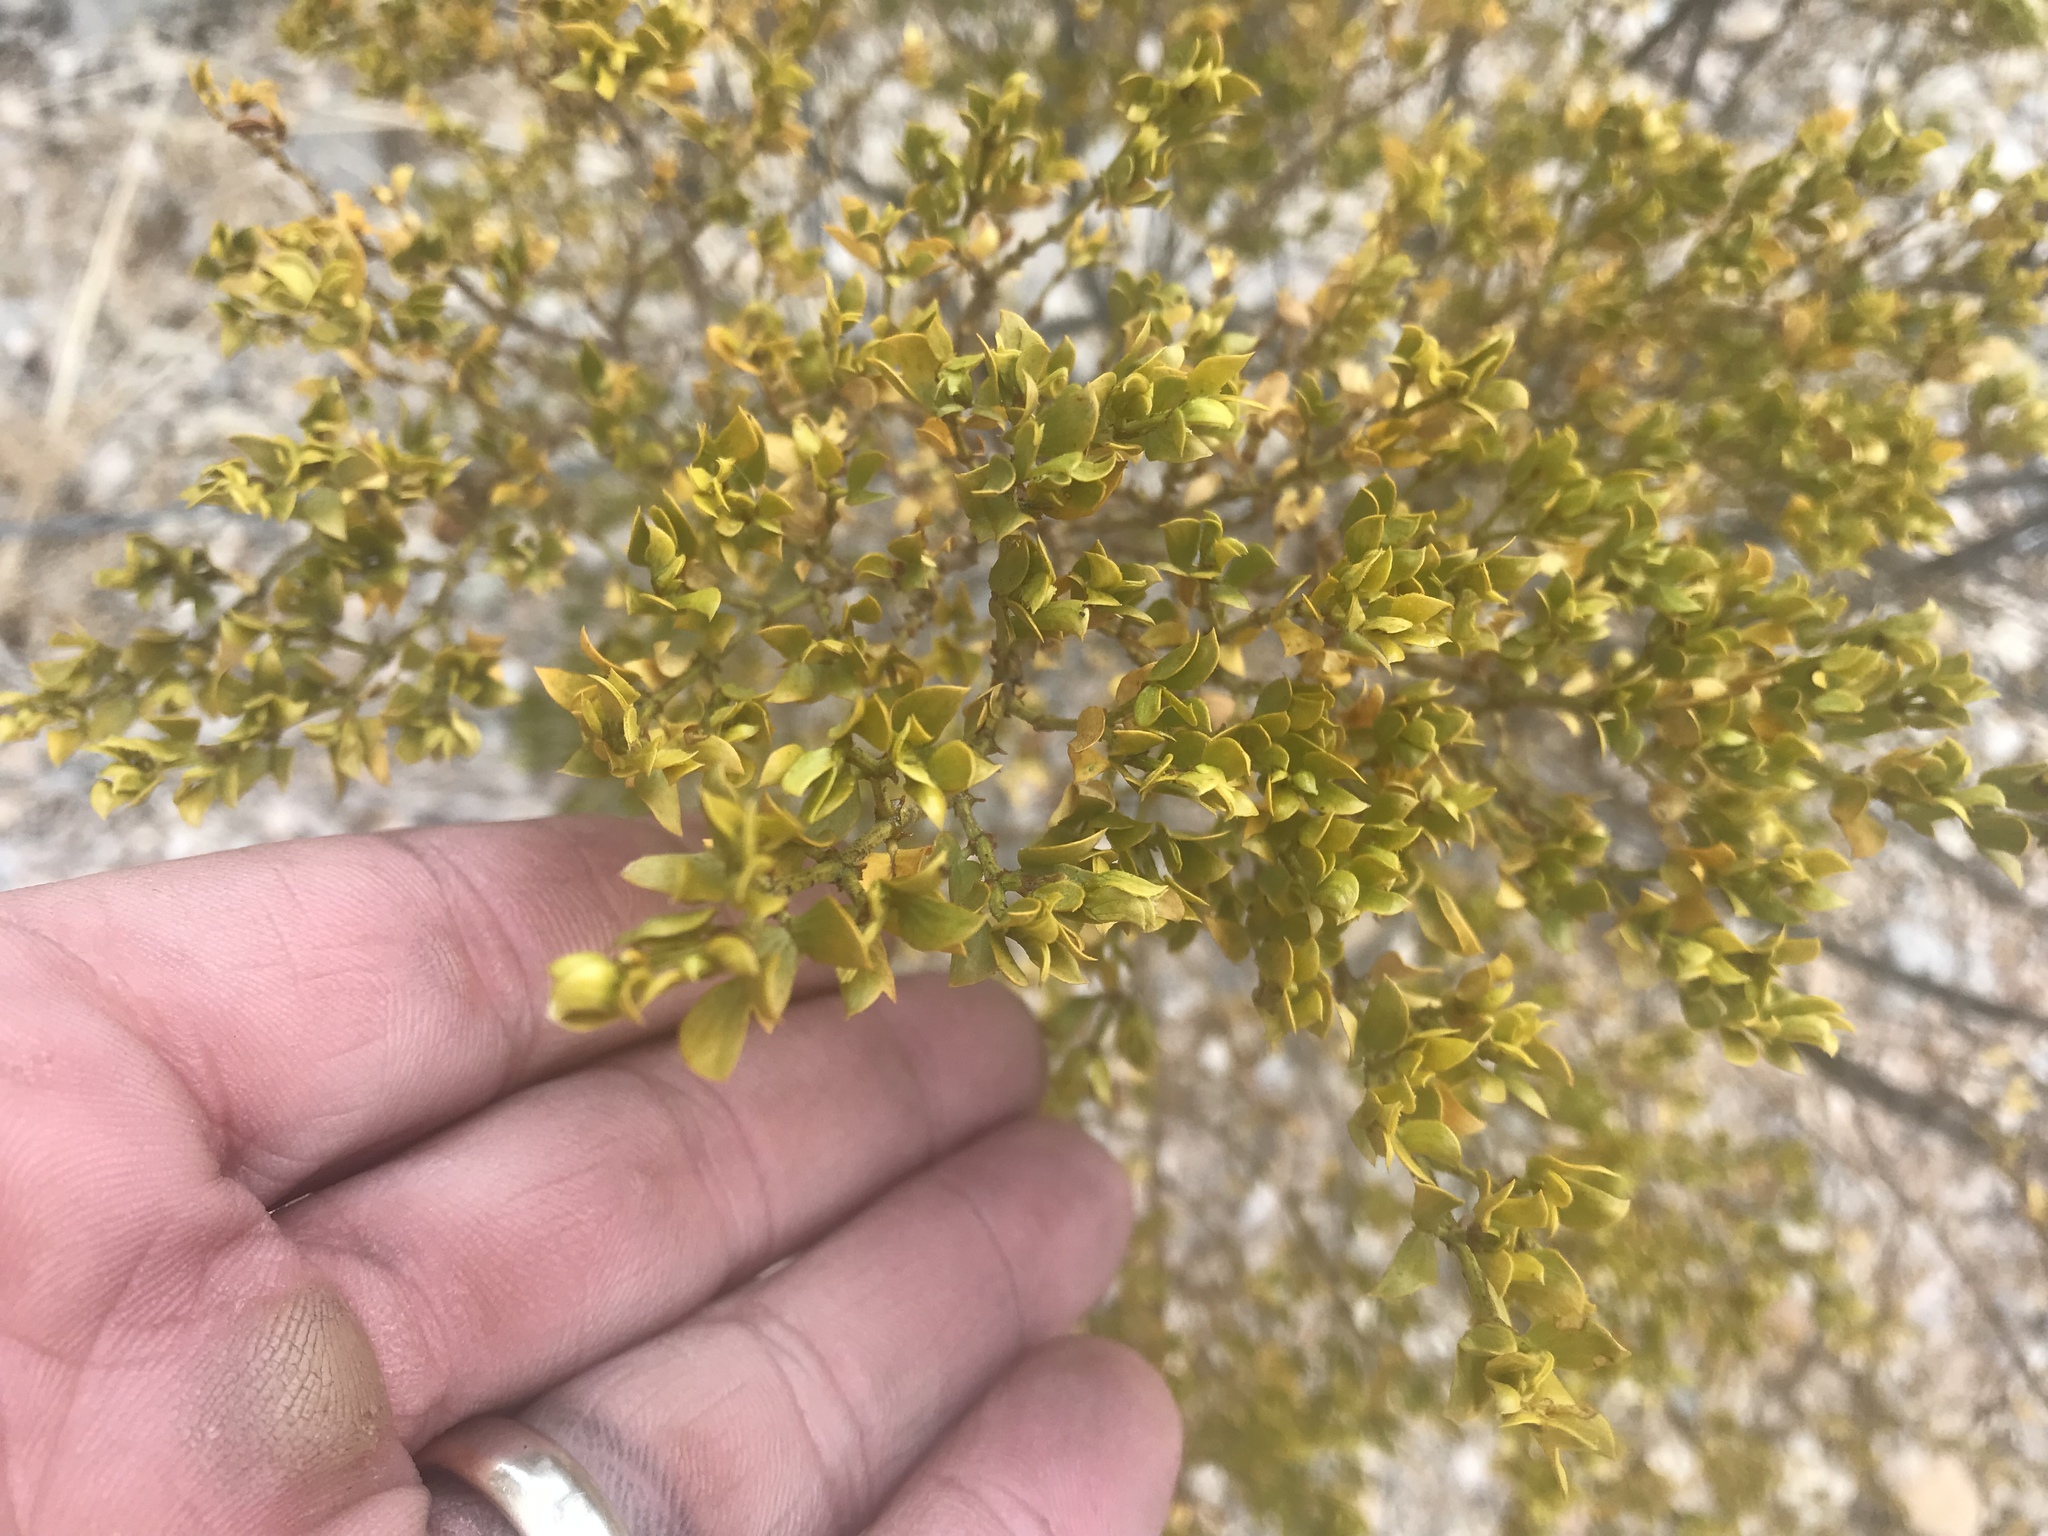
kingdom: Plantae
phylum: Tracheophyta
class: Magnoliopsida
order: Zygophyllales
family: Zygophyllaceae
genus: Larrea
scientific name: Larrea tridentata
